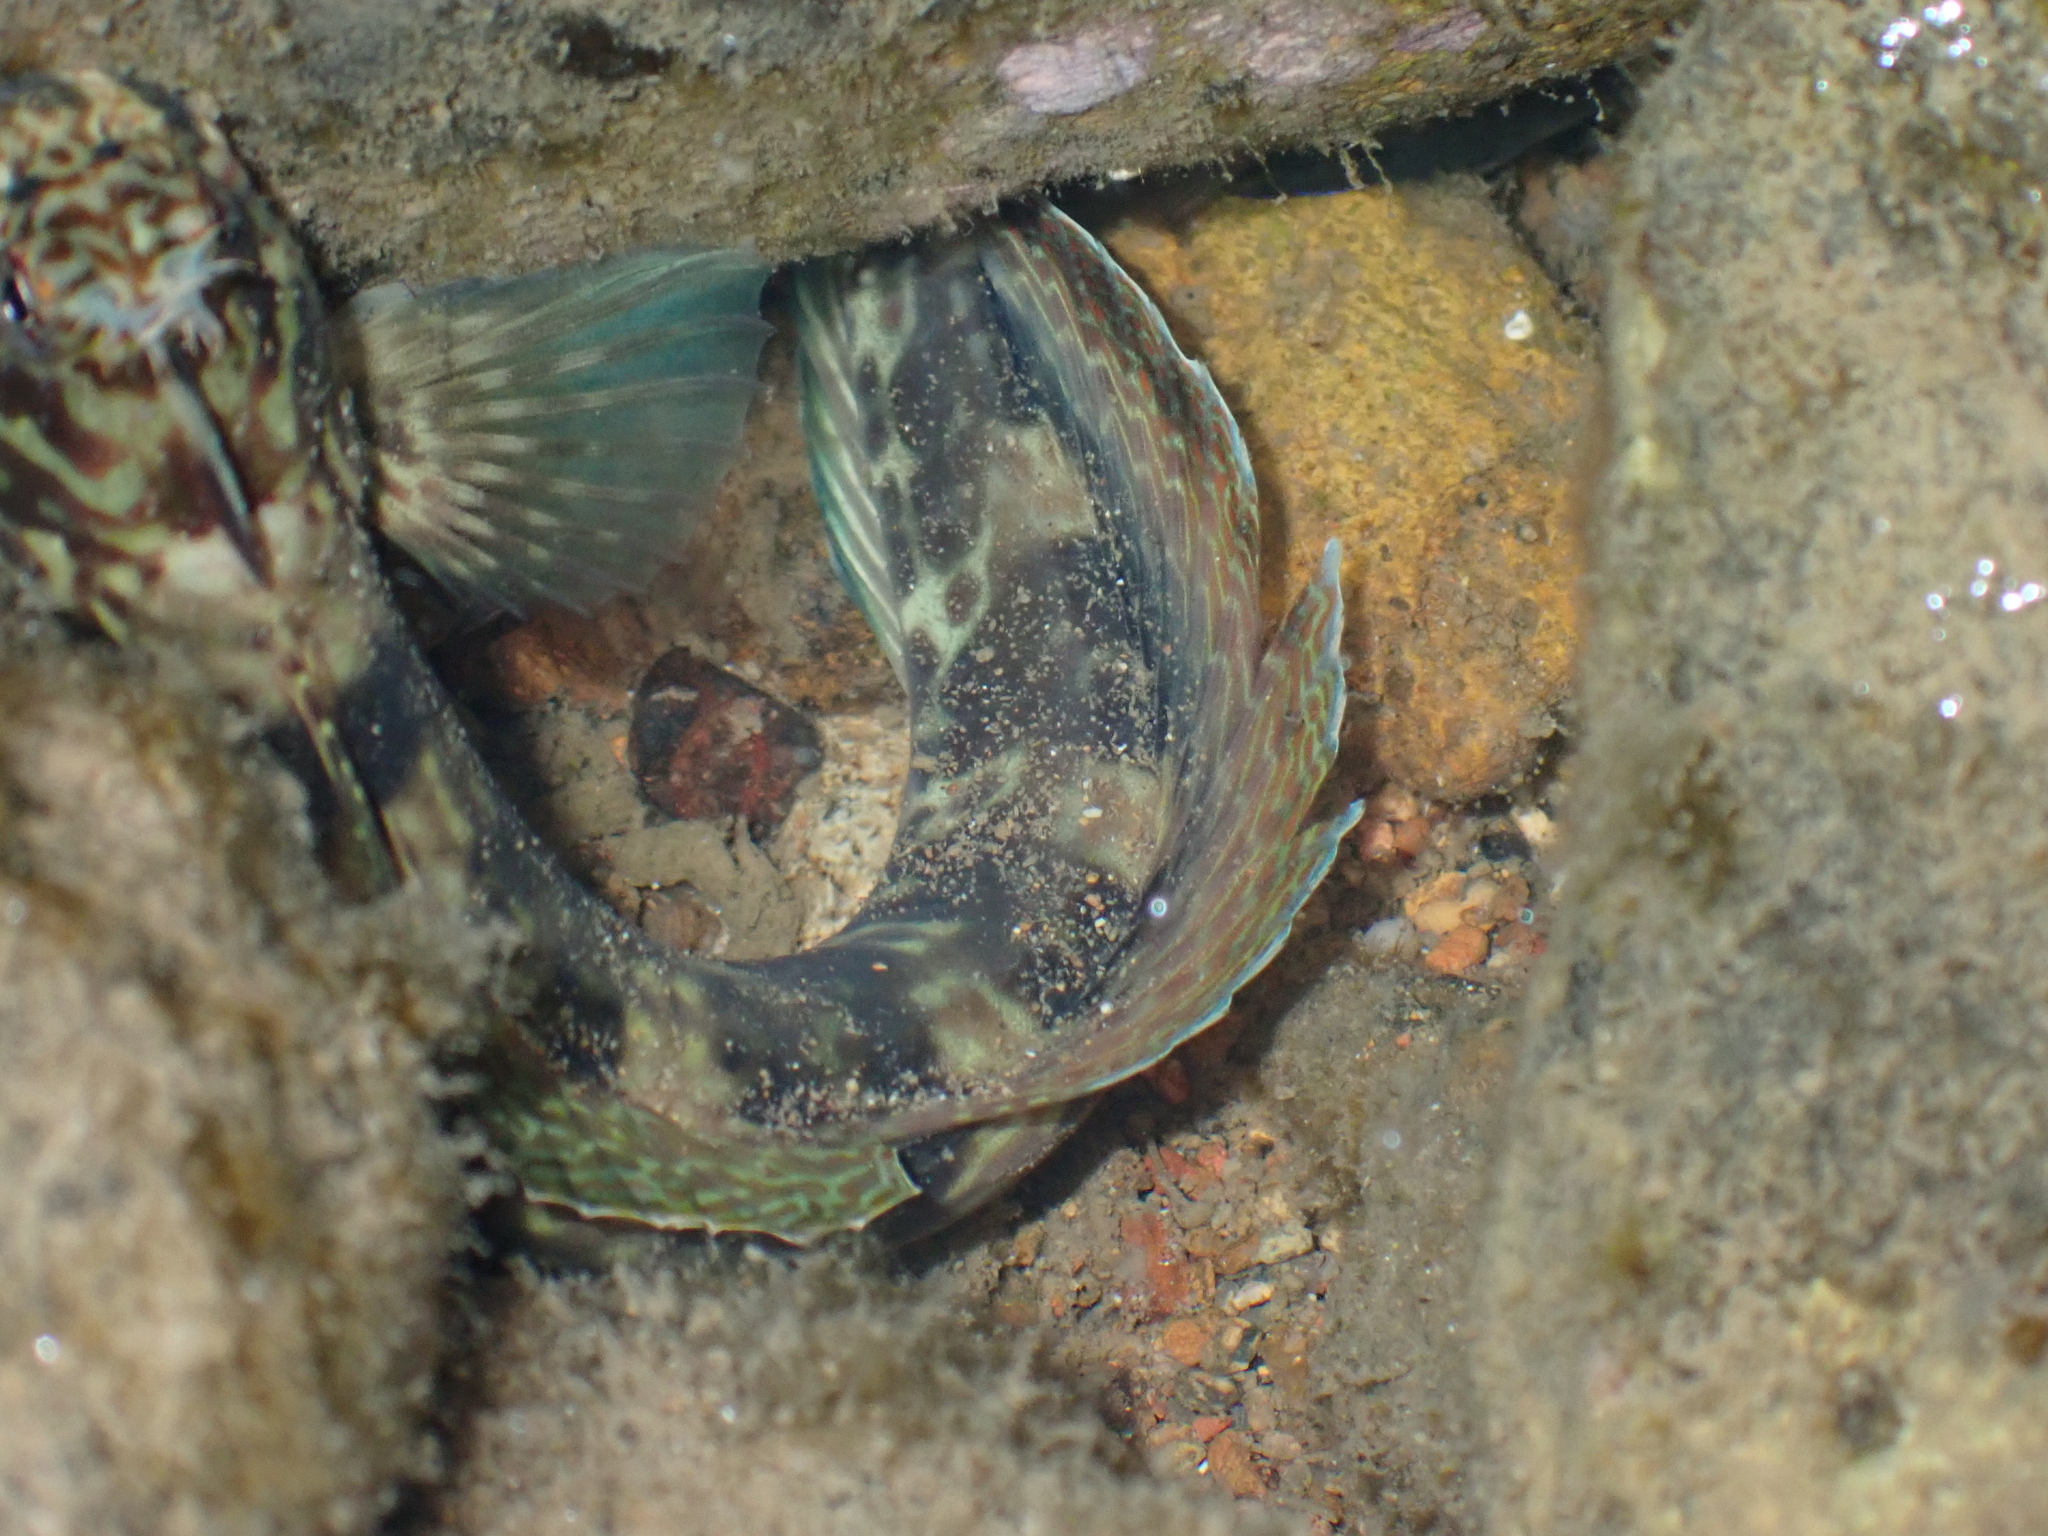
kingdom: Animalia
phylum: Chordata
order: Perciformes
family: Blenniidae
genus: Istiblennius
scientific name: Istiblennius dussumieri
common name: Dussumier's rockskipper
